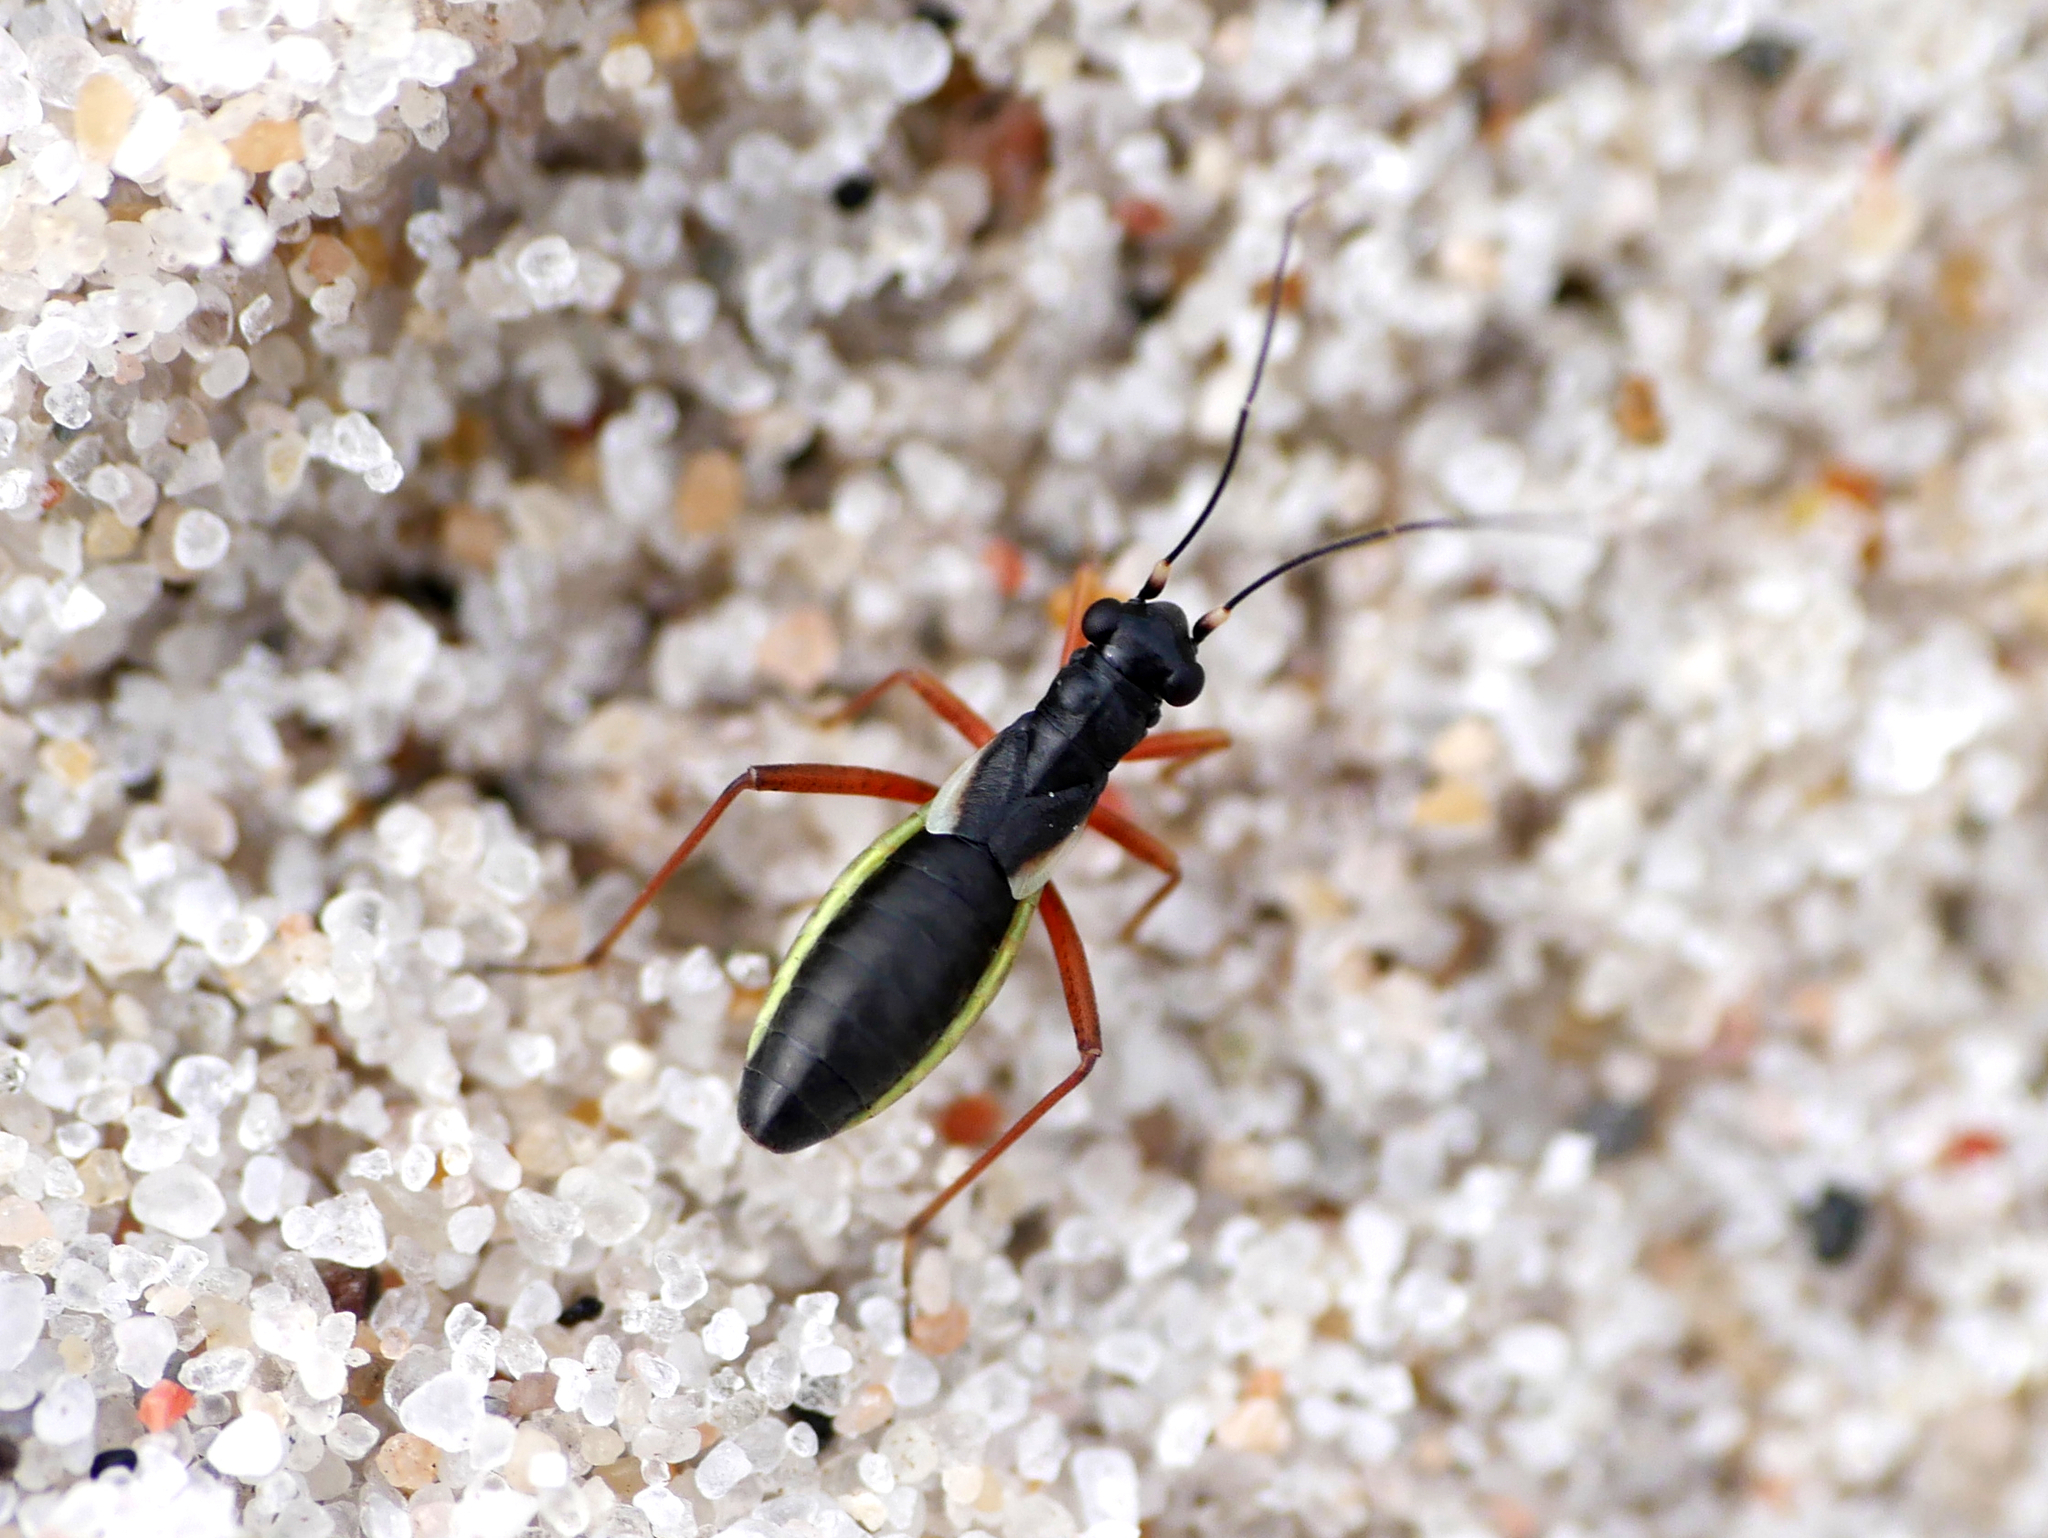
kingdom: Animalia
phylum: Arthropoda
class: Insecta
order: Hemiptera
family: Miridae
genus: Pithanus
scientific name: Pithanus maerkelii
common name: Plant bug
